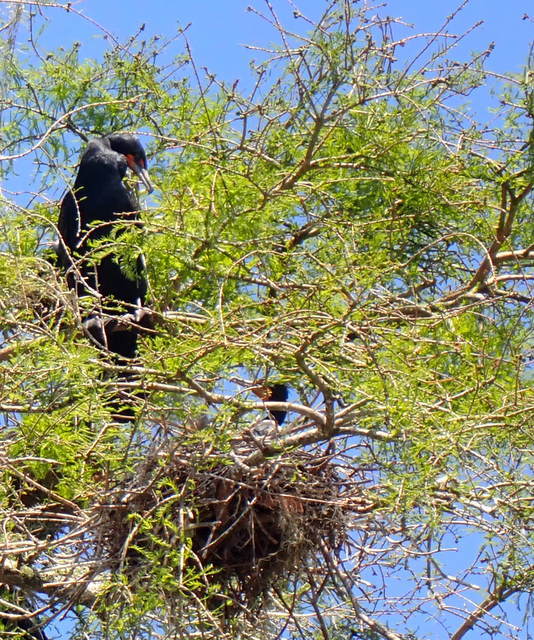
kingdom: Animalia
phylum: Chordata
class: Aves
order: Suliformes
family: Phalacrocoracidae
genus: Phalacrocorax
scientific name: Phalacrocorax auritus
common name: Double-crested cormorant
